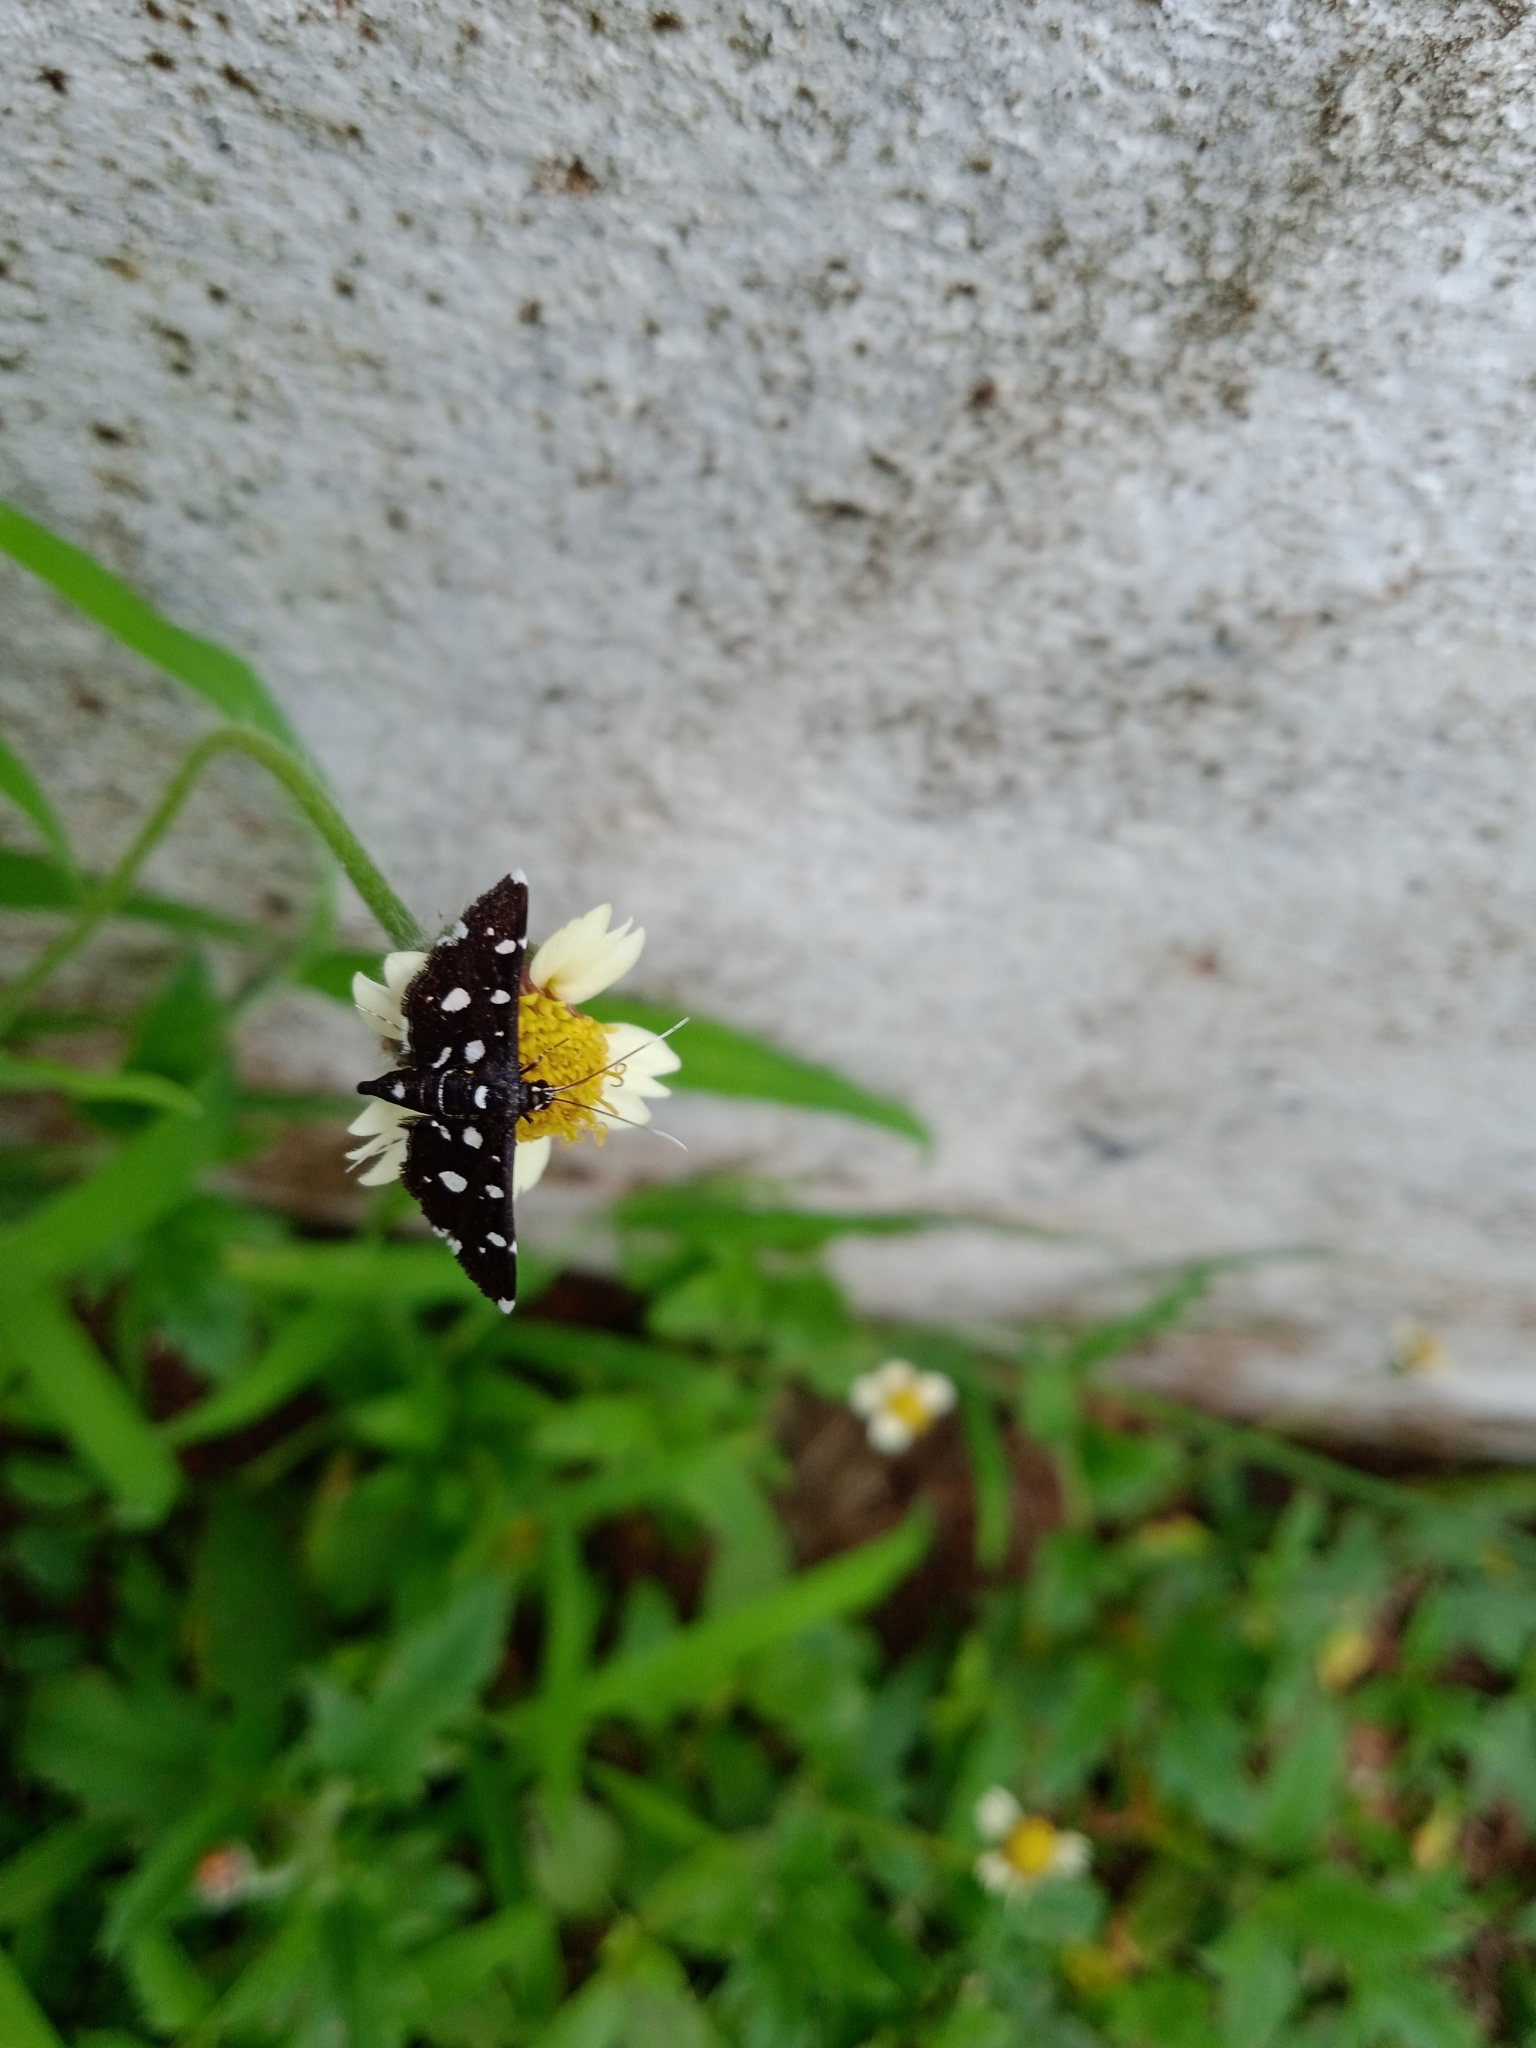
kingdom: Animalia
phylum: Arthropoda
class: Insecta
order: Lepidoptera
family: Crambidae
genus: Bocchoris
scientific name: Bocchoris inspersalis
